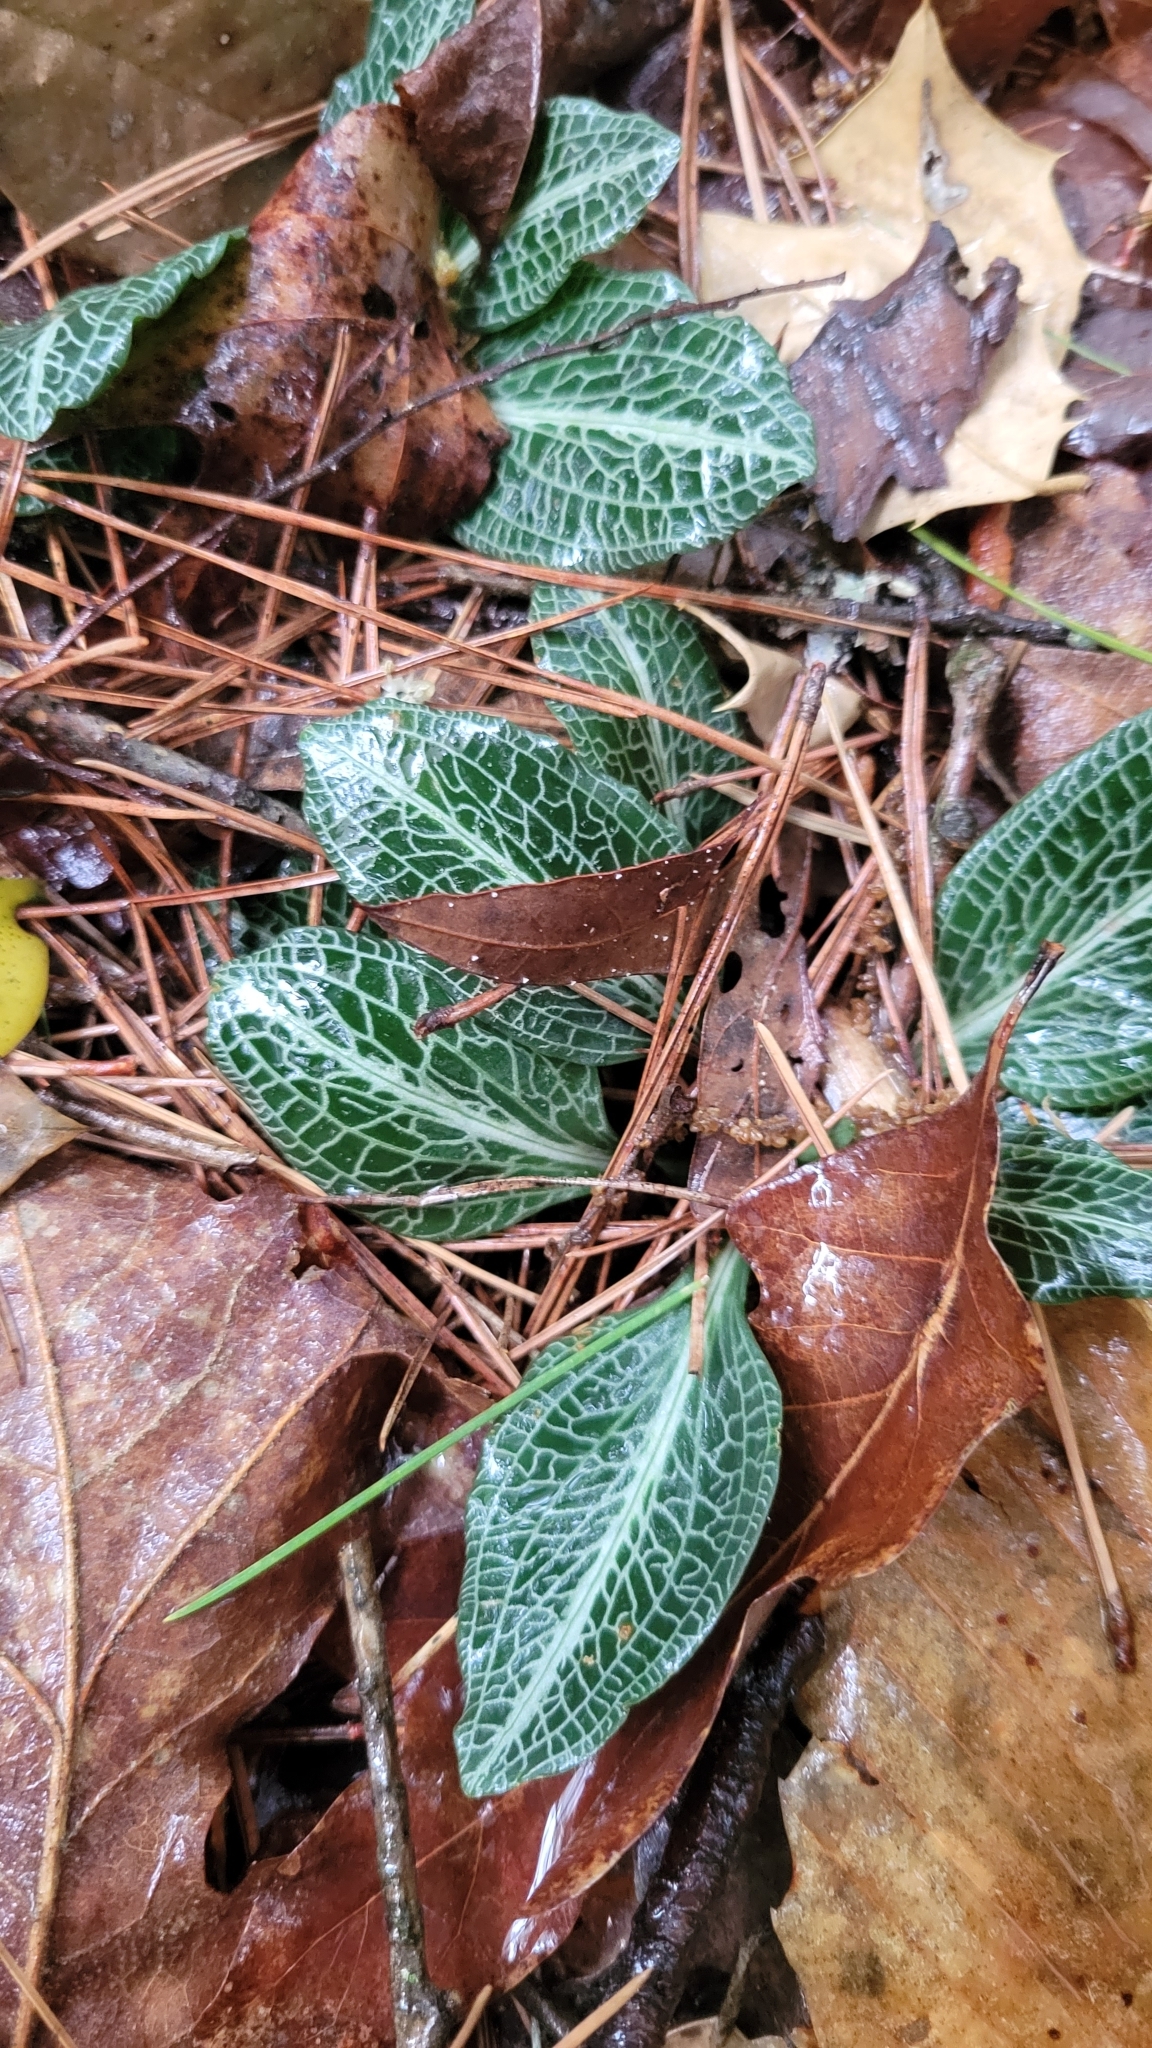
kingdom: Plantae
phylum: Tracheophyta
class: Liliopsida
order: Asparagales
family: Orchidaceae
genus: Goodyera
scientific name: Goodyera pubescens
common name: Downy rattlesnake-plantain
